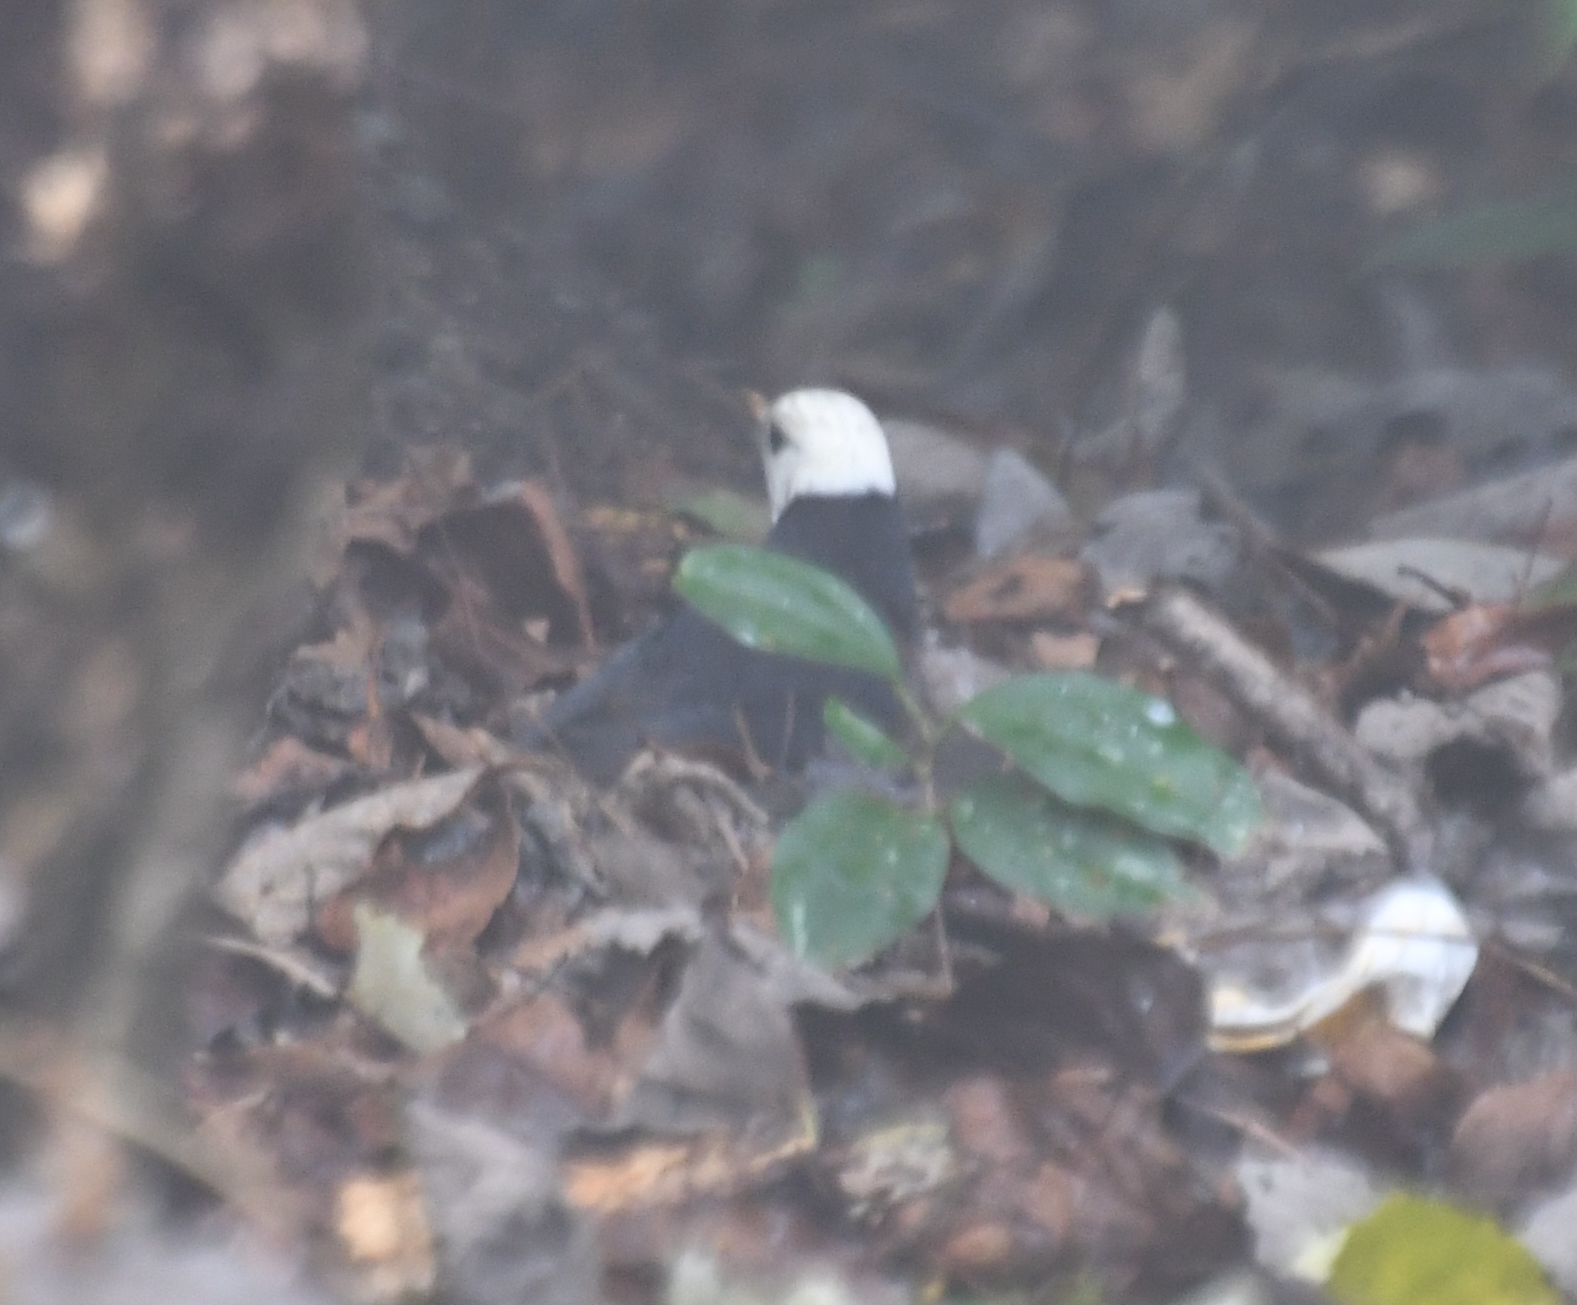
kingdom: Animalia
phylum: Chordata
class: Aves
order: Passeriformes
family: Turdidae
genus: Turdus
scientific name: Turdus poliocephalus
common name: Island thrush
